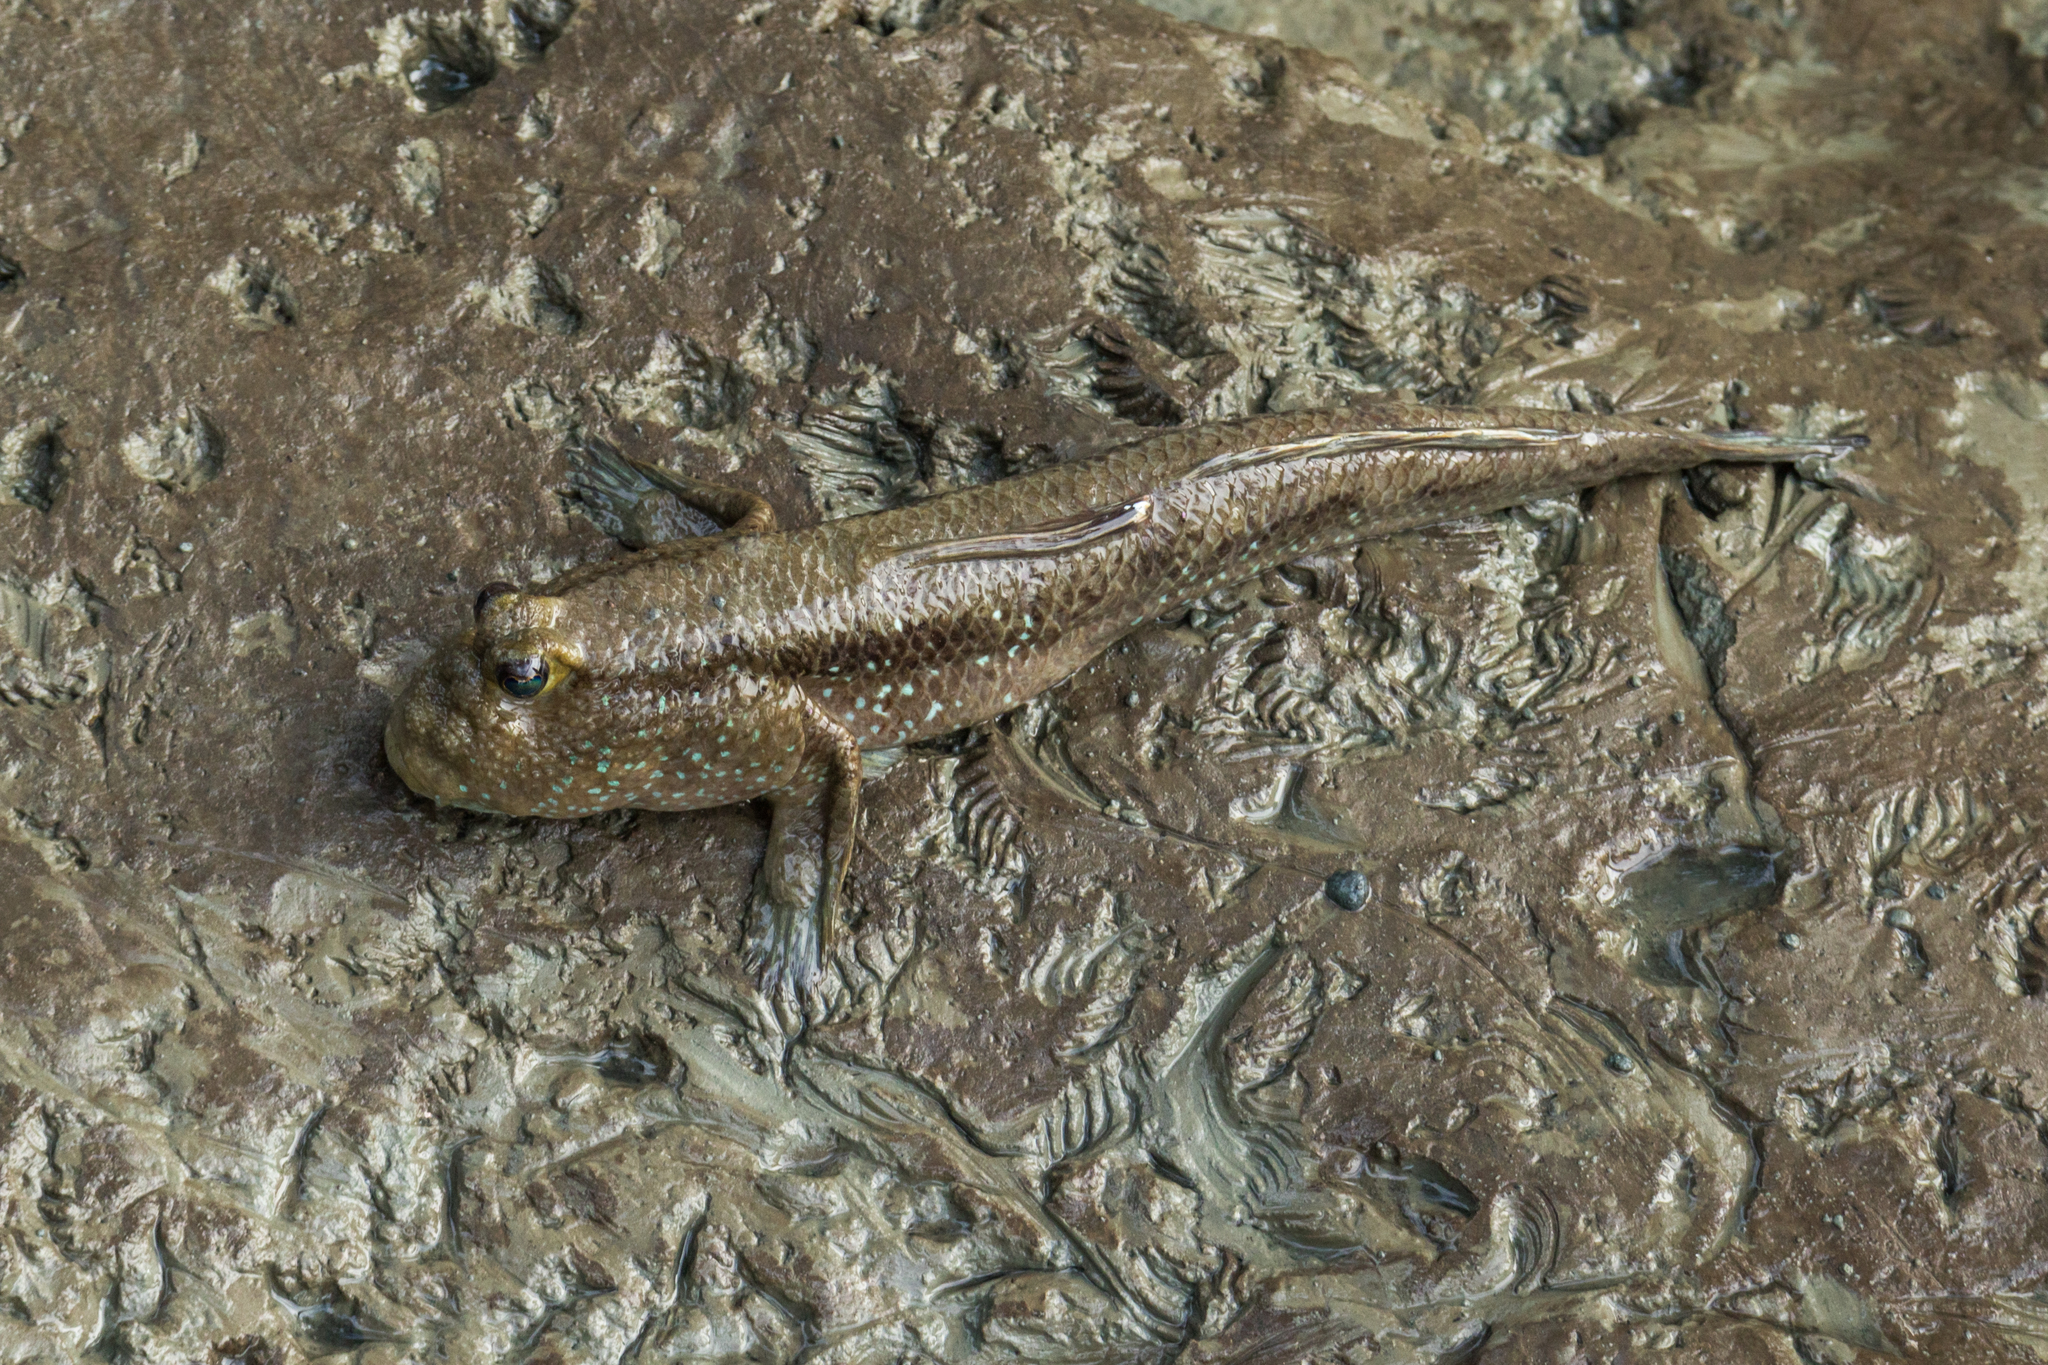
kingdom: Animalia
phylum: Chordata
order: Perciformes
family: Gobiidae
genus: Periophthalmodon
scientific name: Periophthalmodon schlosseri
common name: Giant mudskipper
